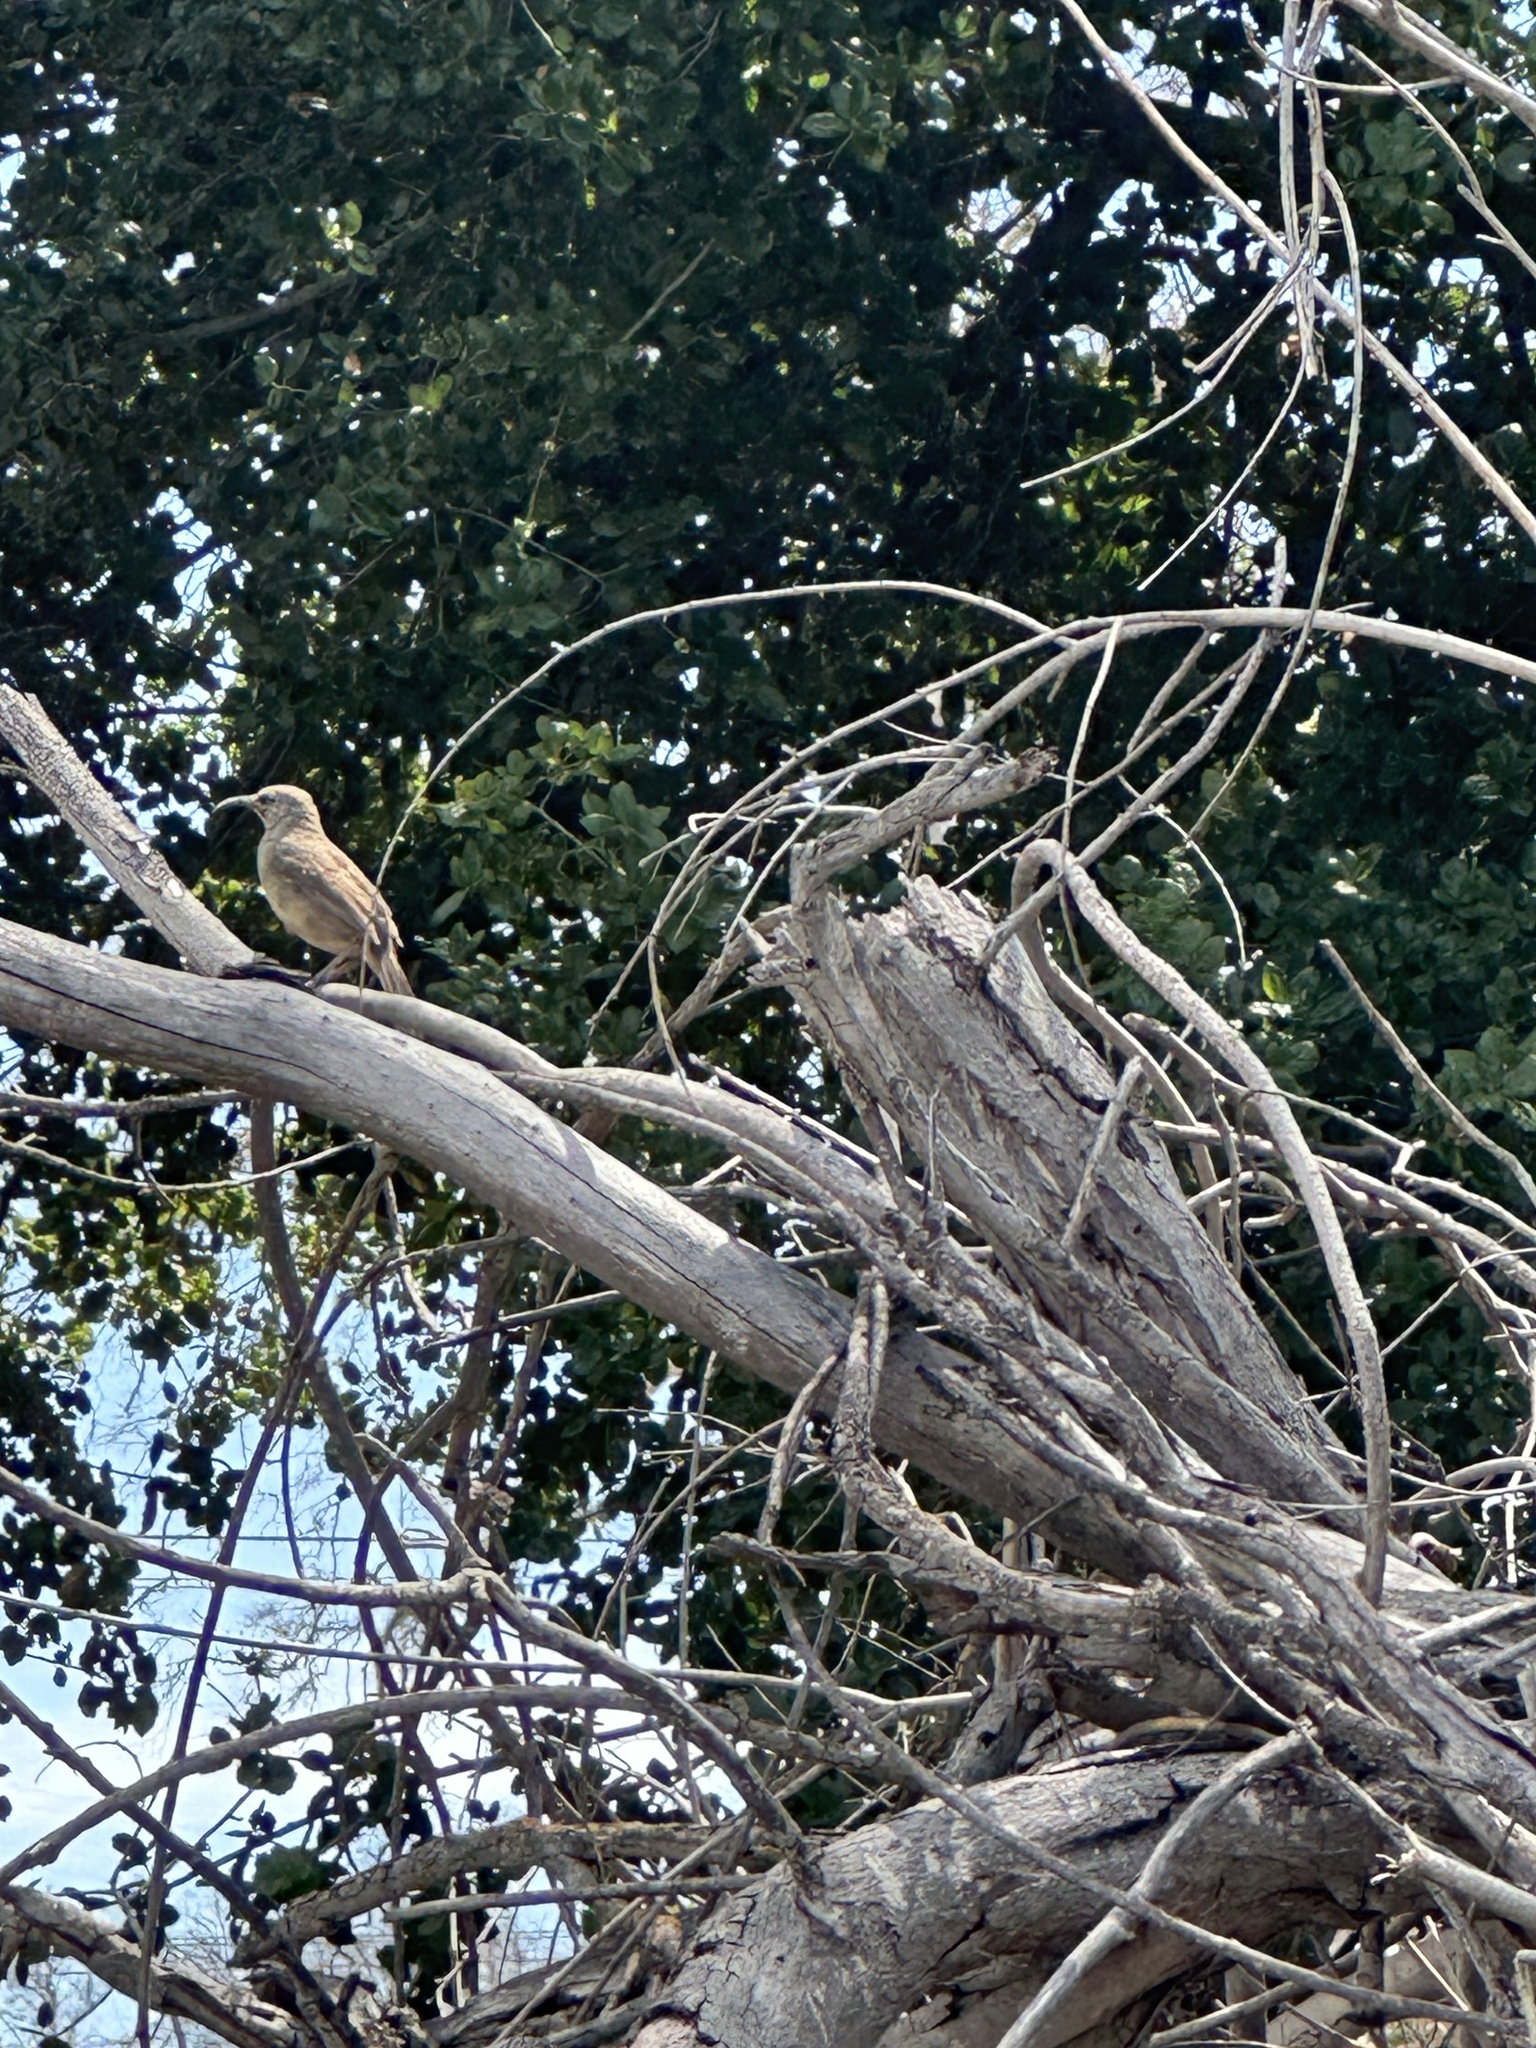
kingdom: Animalia
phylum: Chordata
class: Aves
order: Passeriformes
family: Mimidae
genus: Toxostoma
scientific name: Toxostoma redivivum
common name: California thrasher
